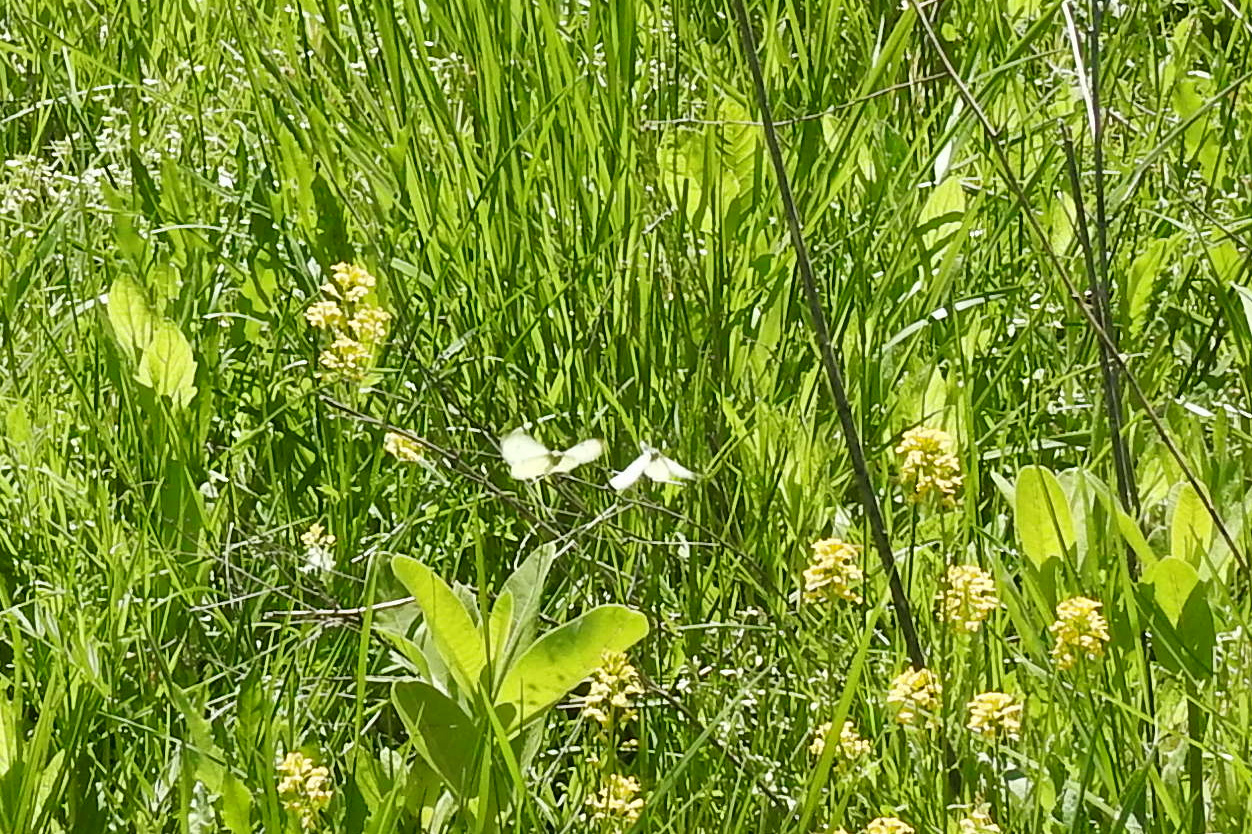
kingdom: Animalia
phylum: Arthropoda
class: Insecta
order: Lepidoptera
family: Pieridae
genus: Pieris
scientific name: Pieris rapae
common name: Small white
